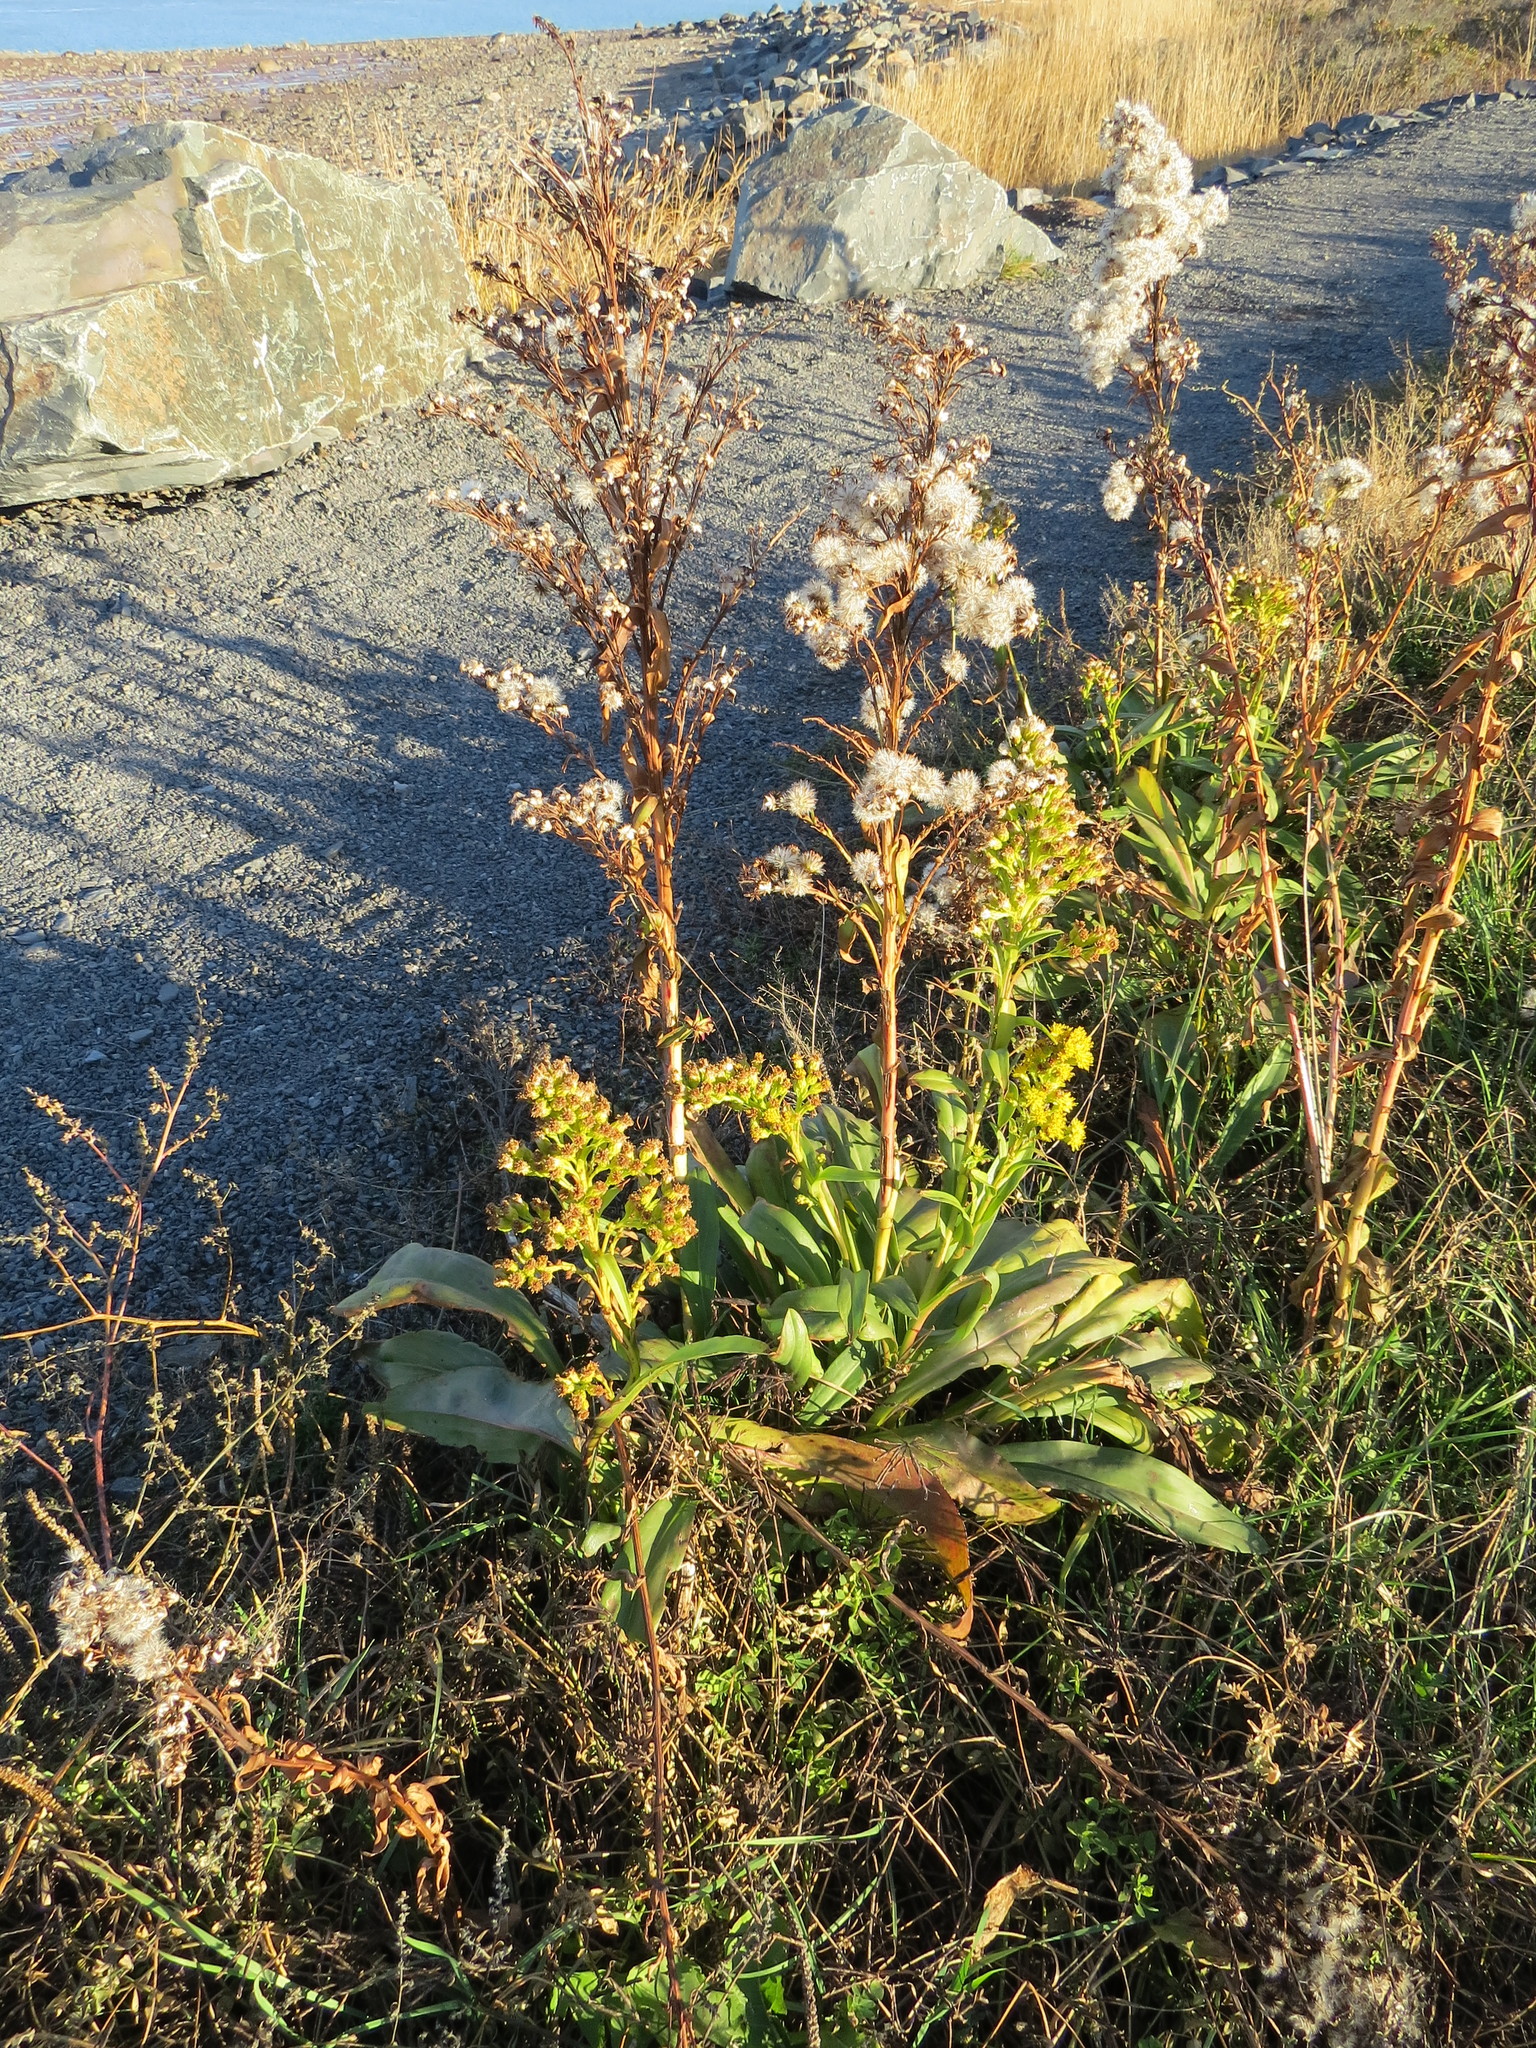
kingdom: Plantae
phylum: Tracheophyta
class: Magnoliopsida
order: Asterales
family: Asteraceae
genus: Solidago
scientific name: Solidago sempervirens
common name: Salt-marsh goldenrod
